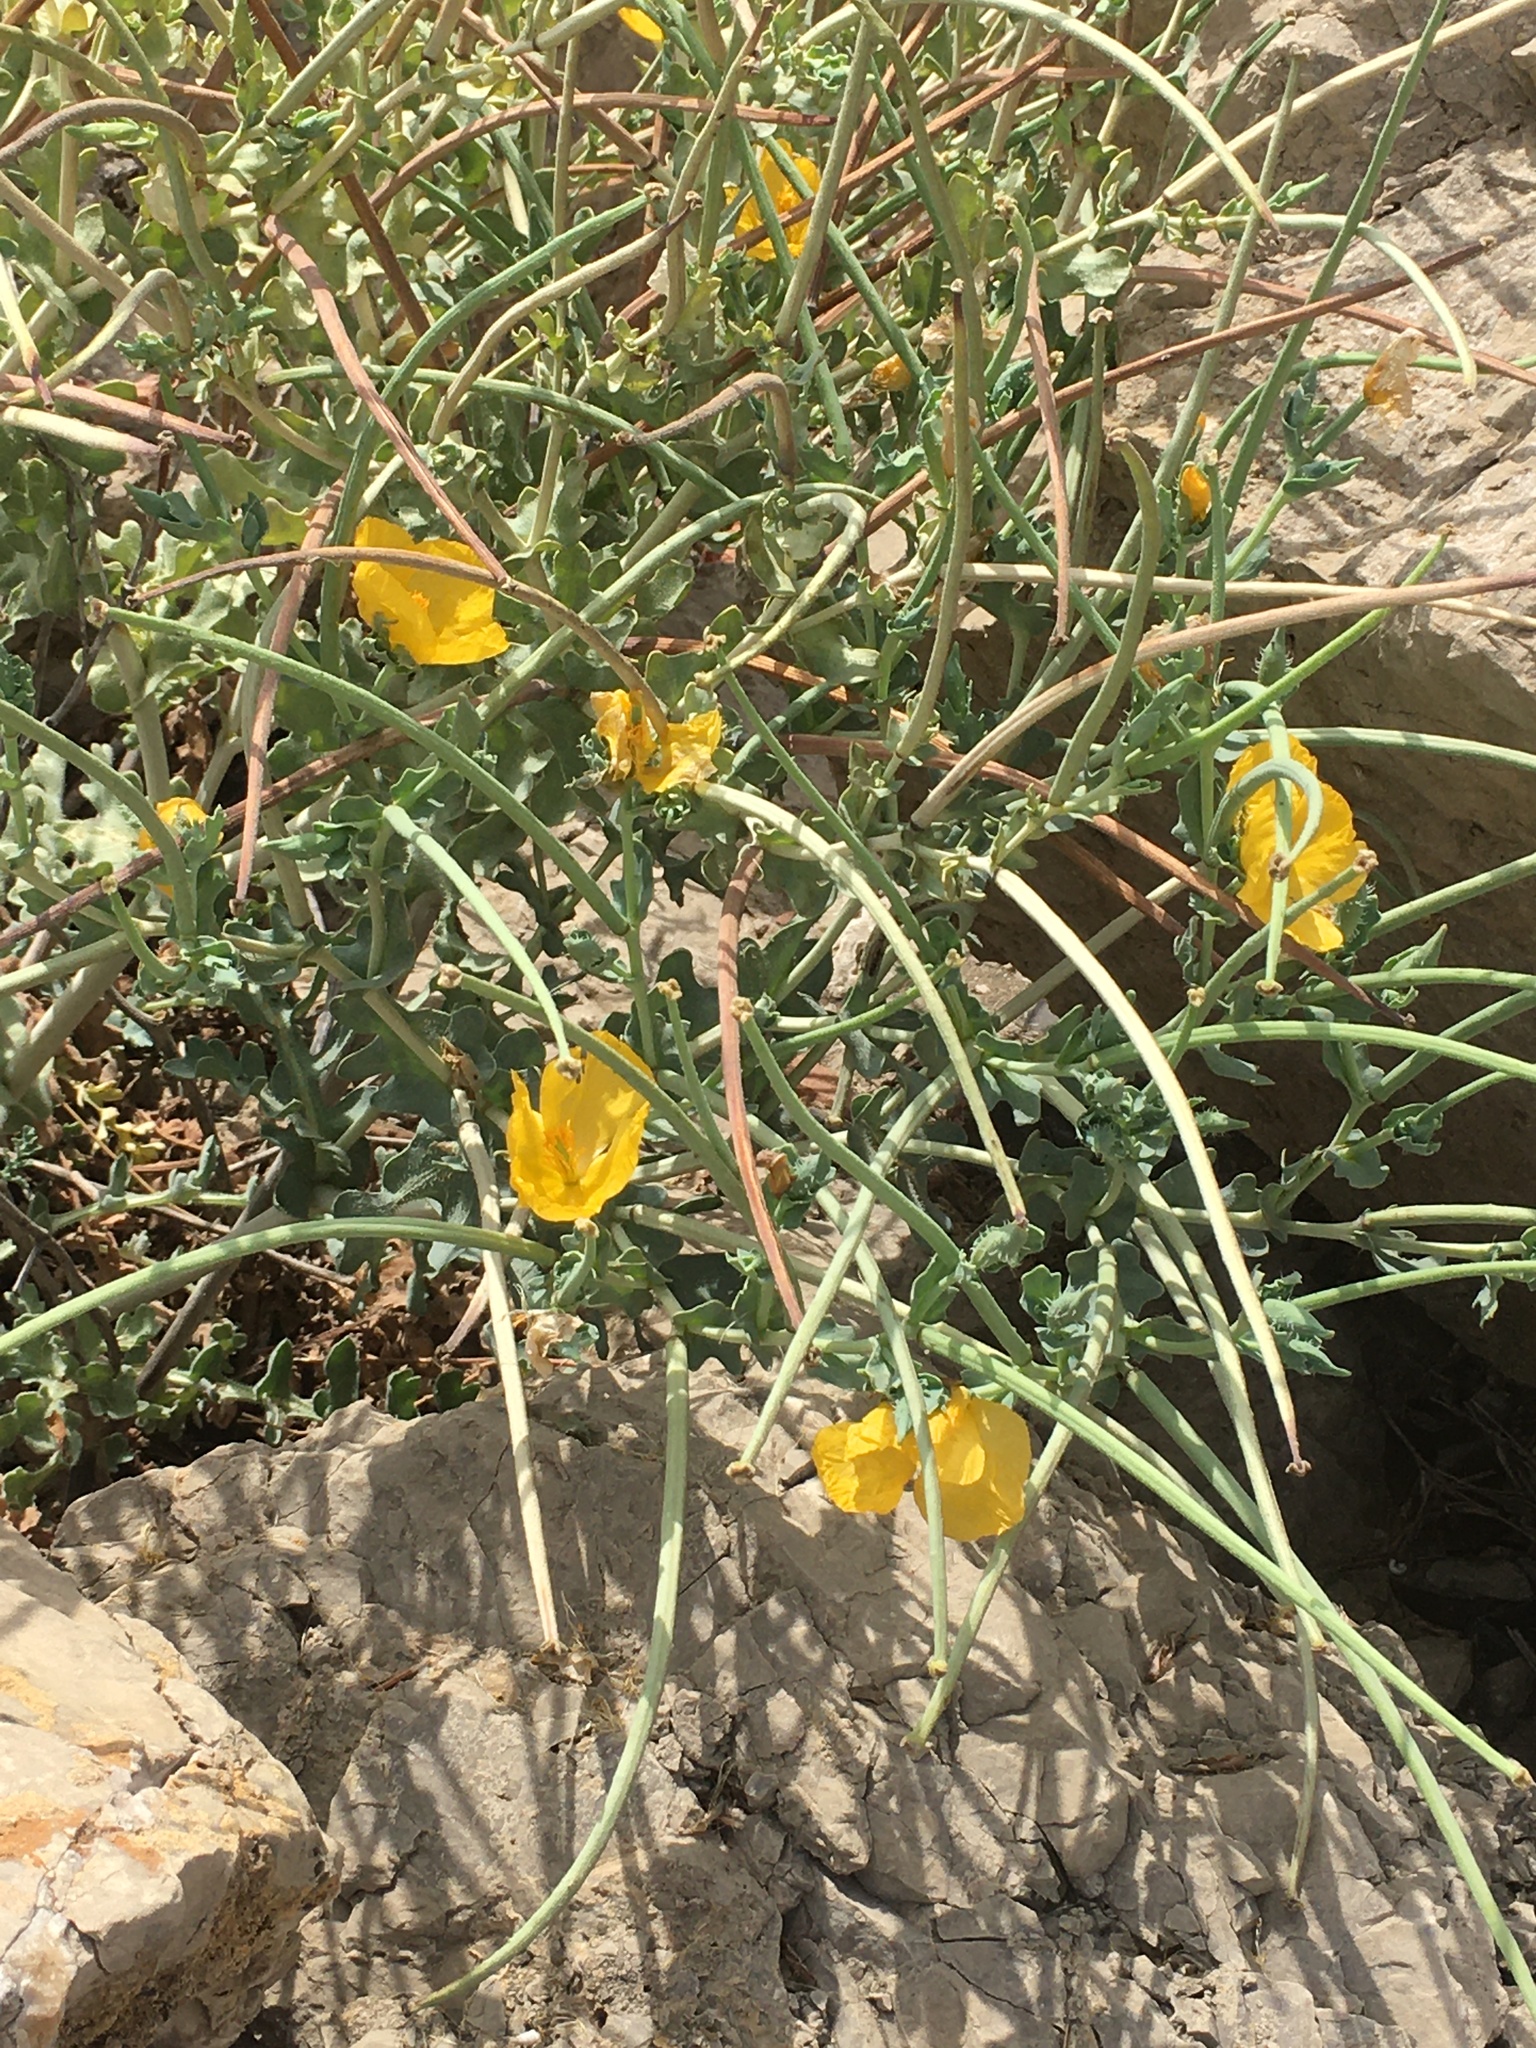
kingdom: Plantae
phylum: Tracheophyta
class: Magnoliopsida
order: Ranunculales
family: Papaveraceae
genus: Glaucium
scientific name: Glaucium flavum
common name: Yellow horned-poppy
